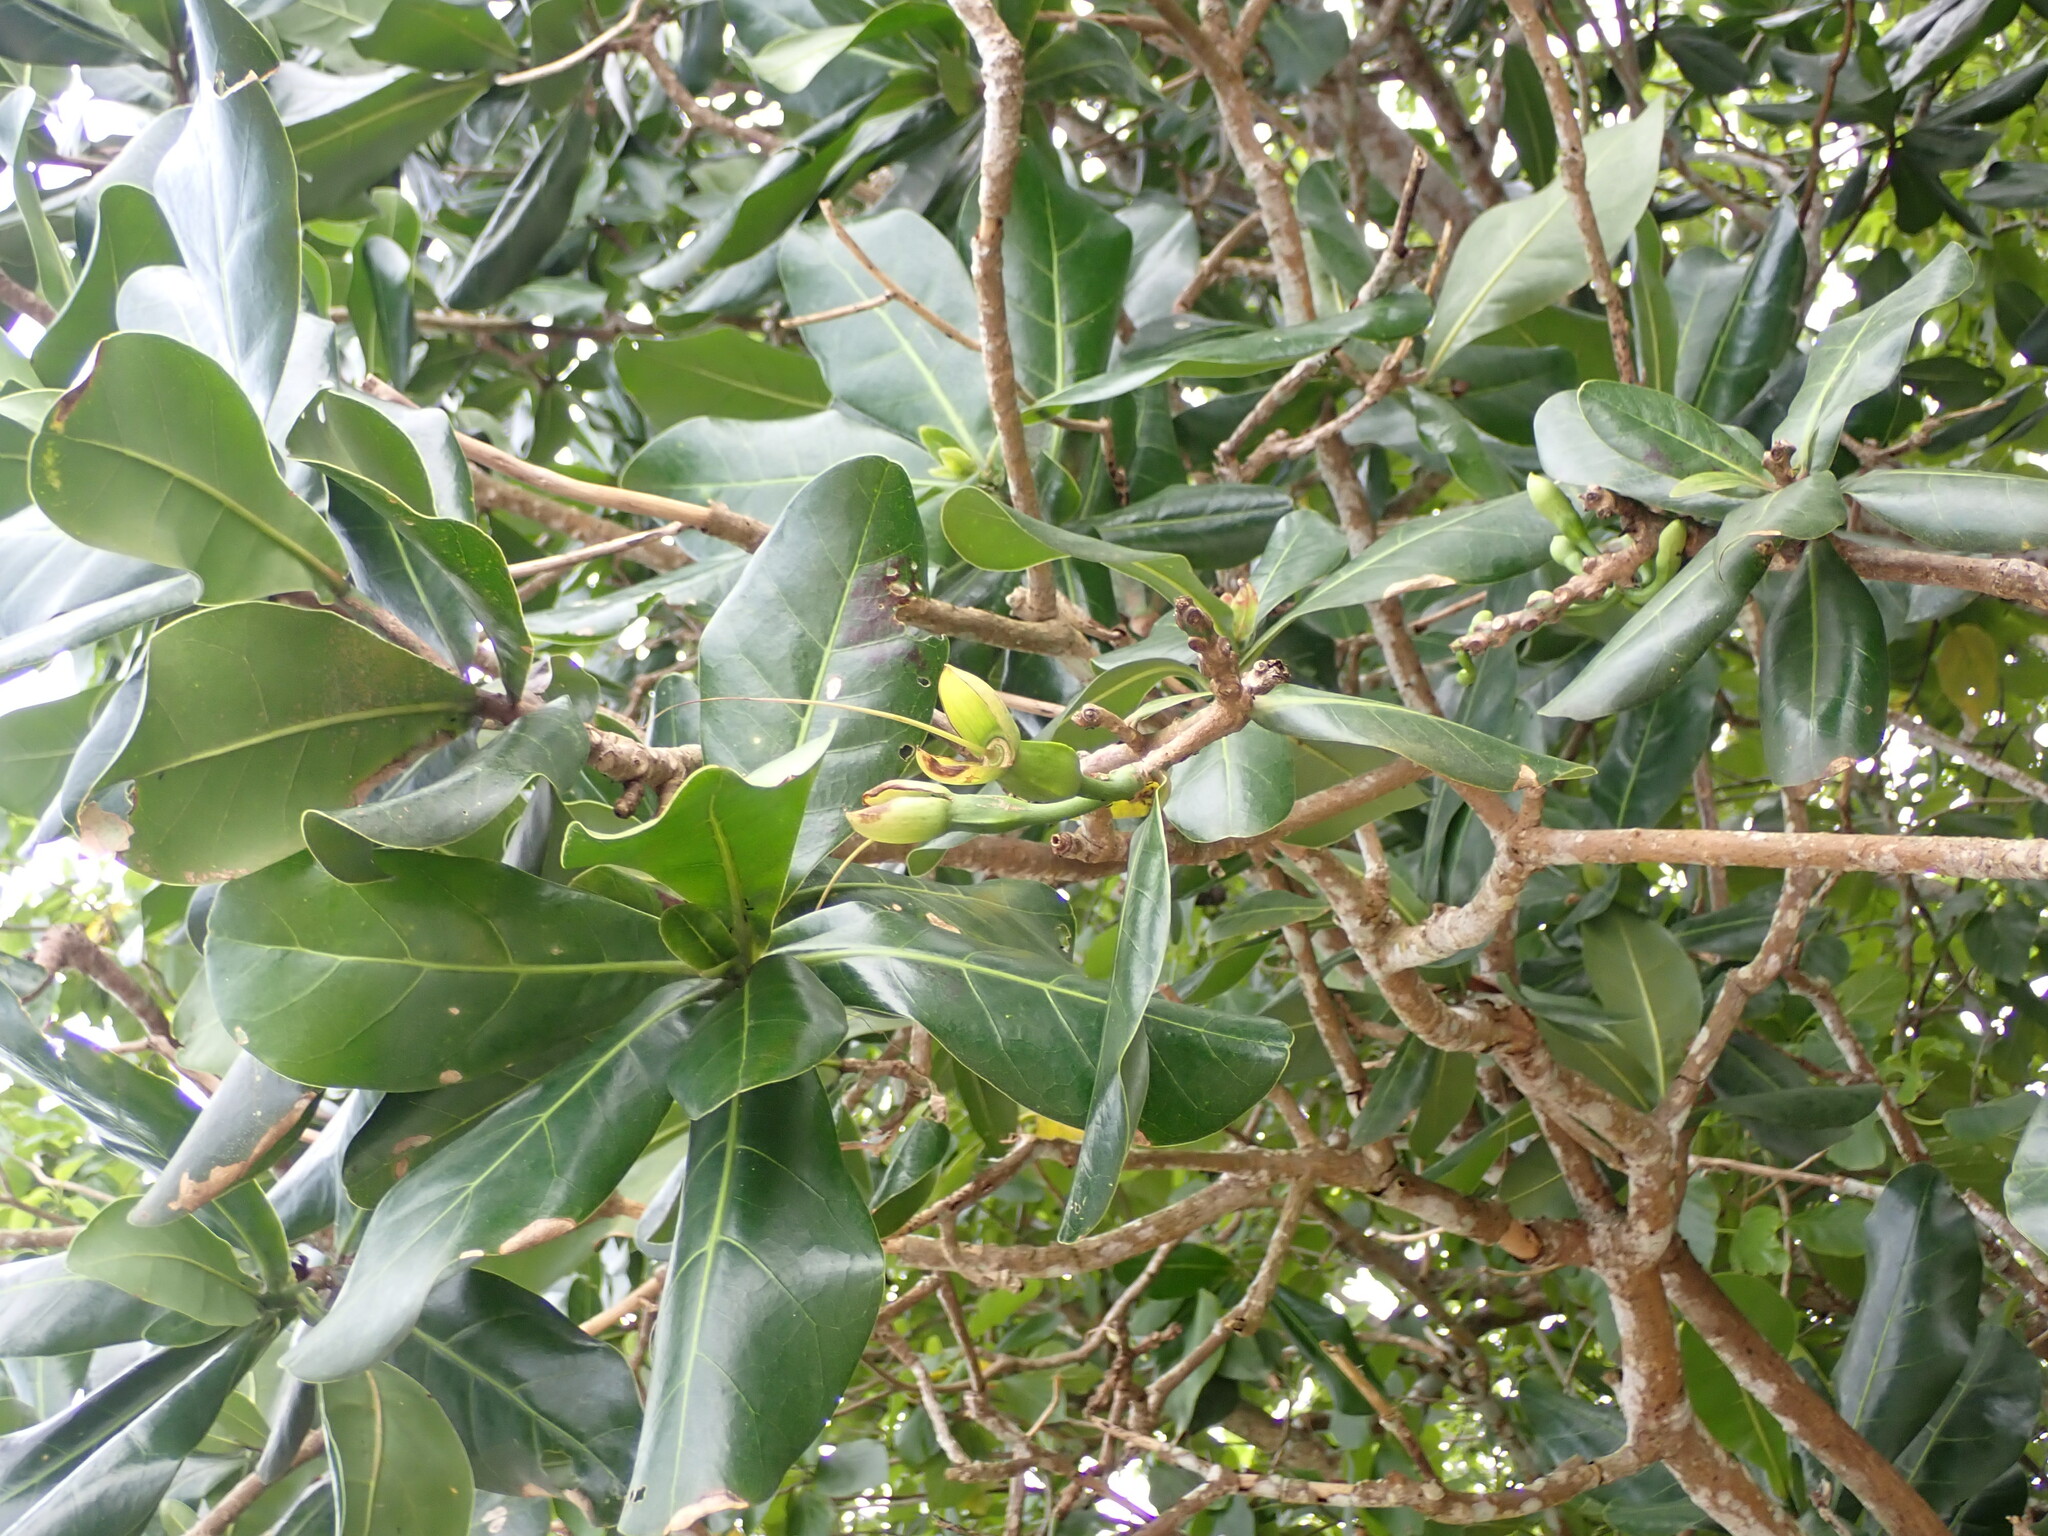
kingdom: Plantae
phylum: Tracheophyta
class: Magnoliopsida
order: Ericales
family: Lecythidaceae
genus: Barringtonia
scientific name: Barringtonia asiatica
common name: Mango-pine
